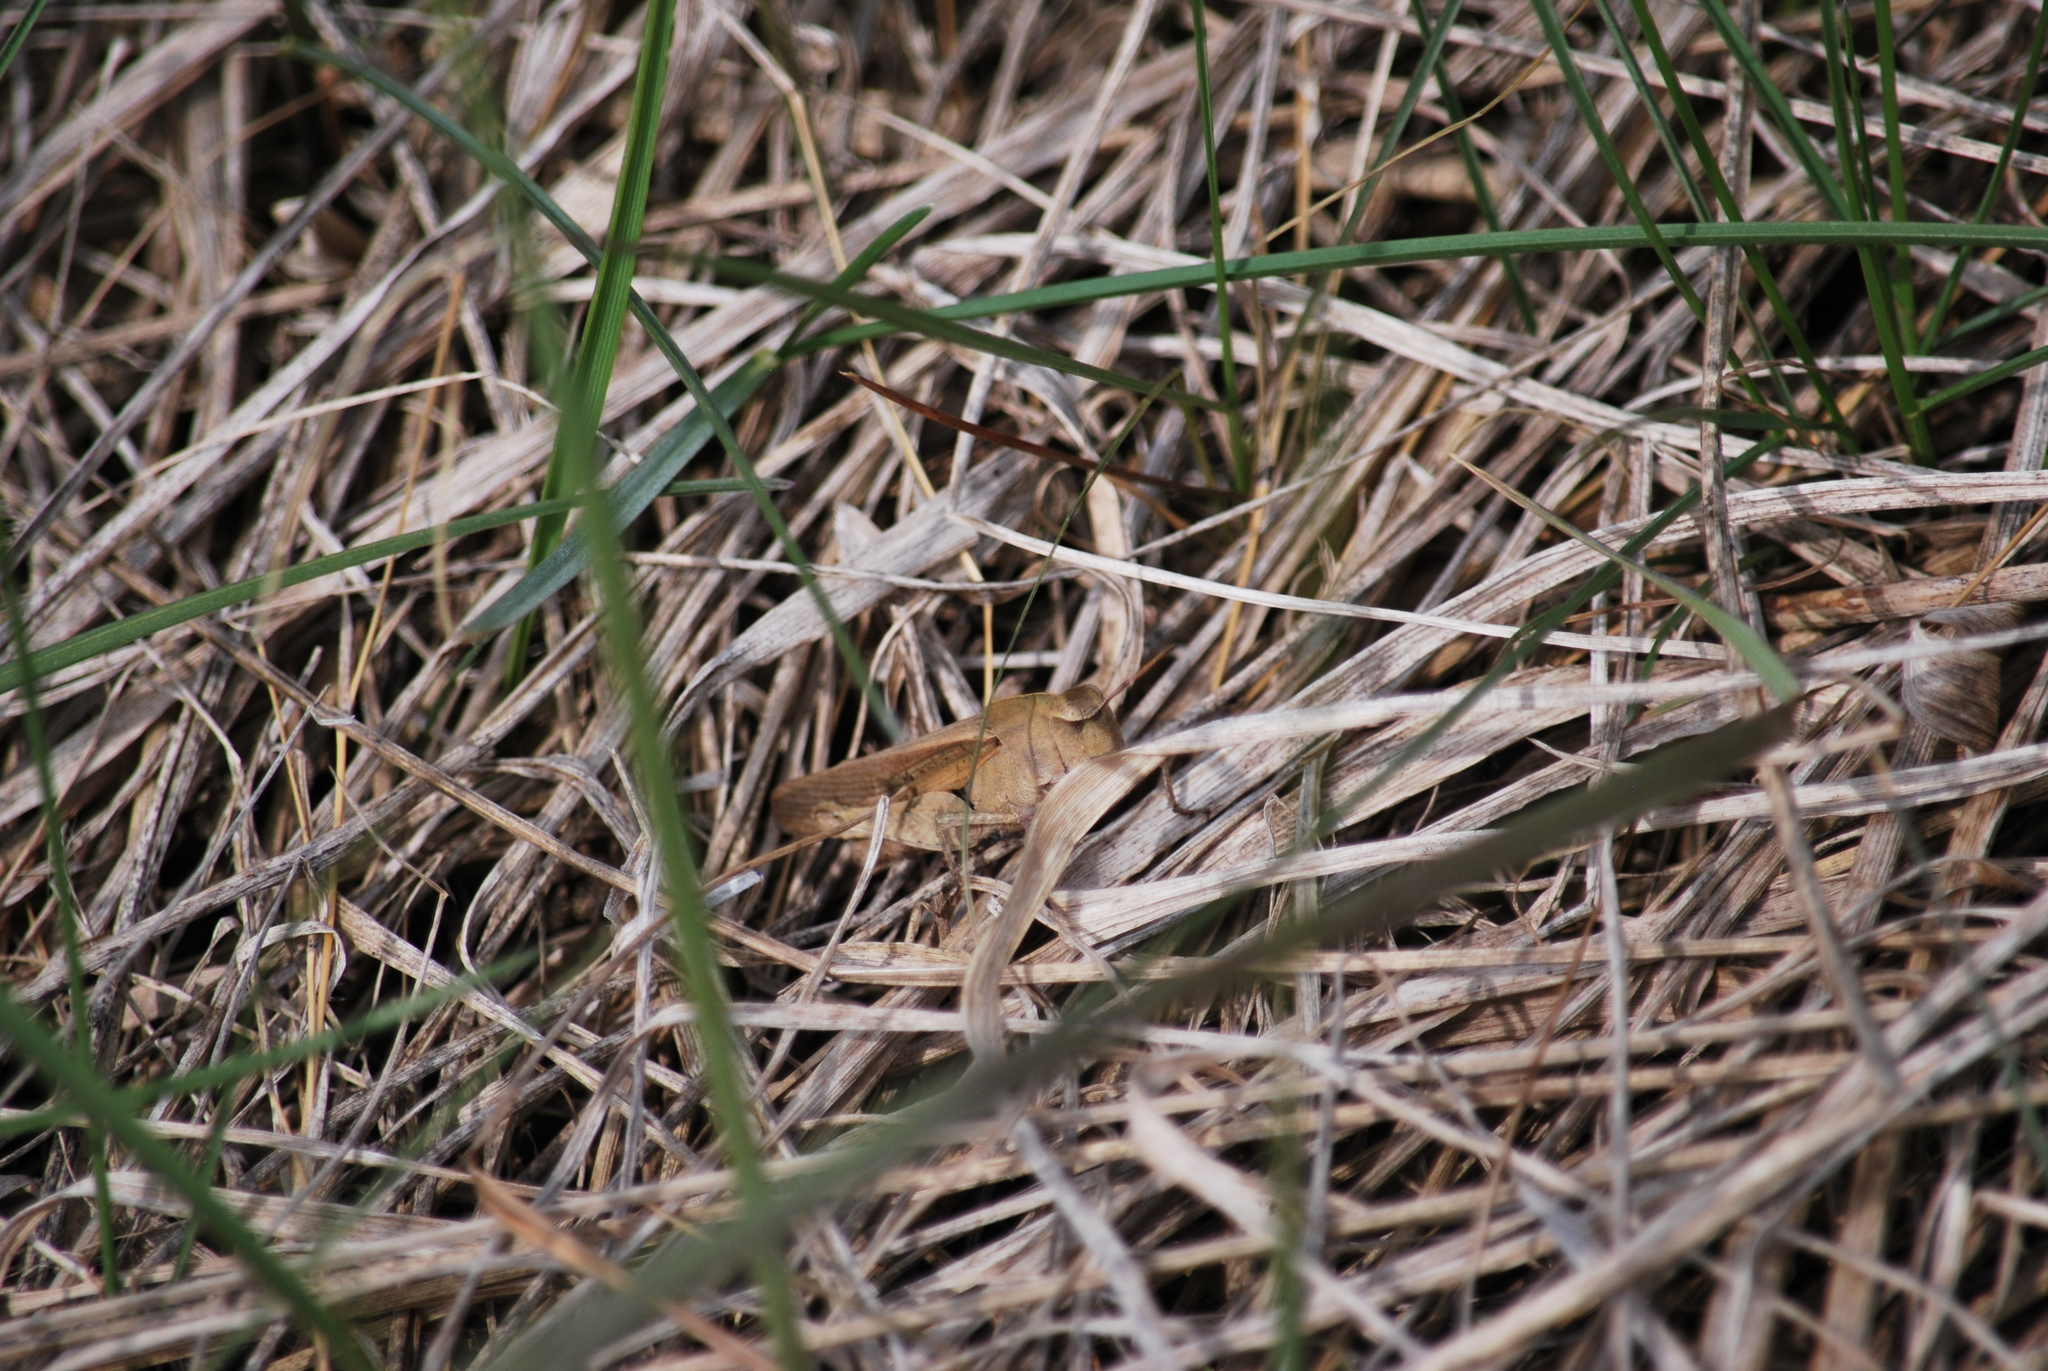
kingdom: Animalia
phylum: Arthropoda
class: Insecta
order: Orthoptera
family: Acrididae
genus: Chortophaga
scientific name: Chortophaga viridifasciata
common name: Green-striped grasshopper
